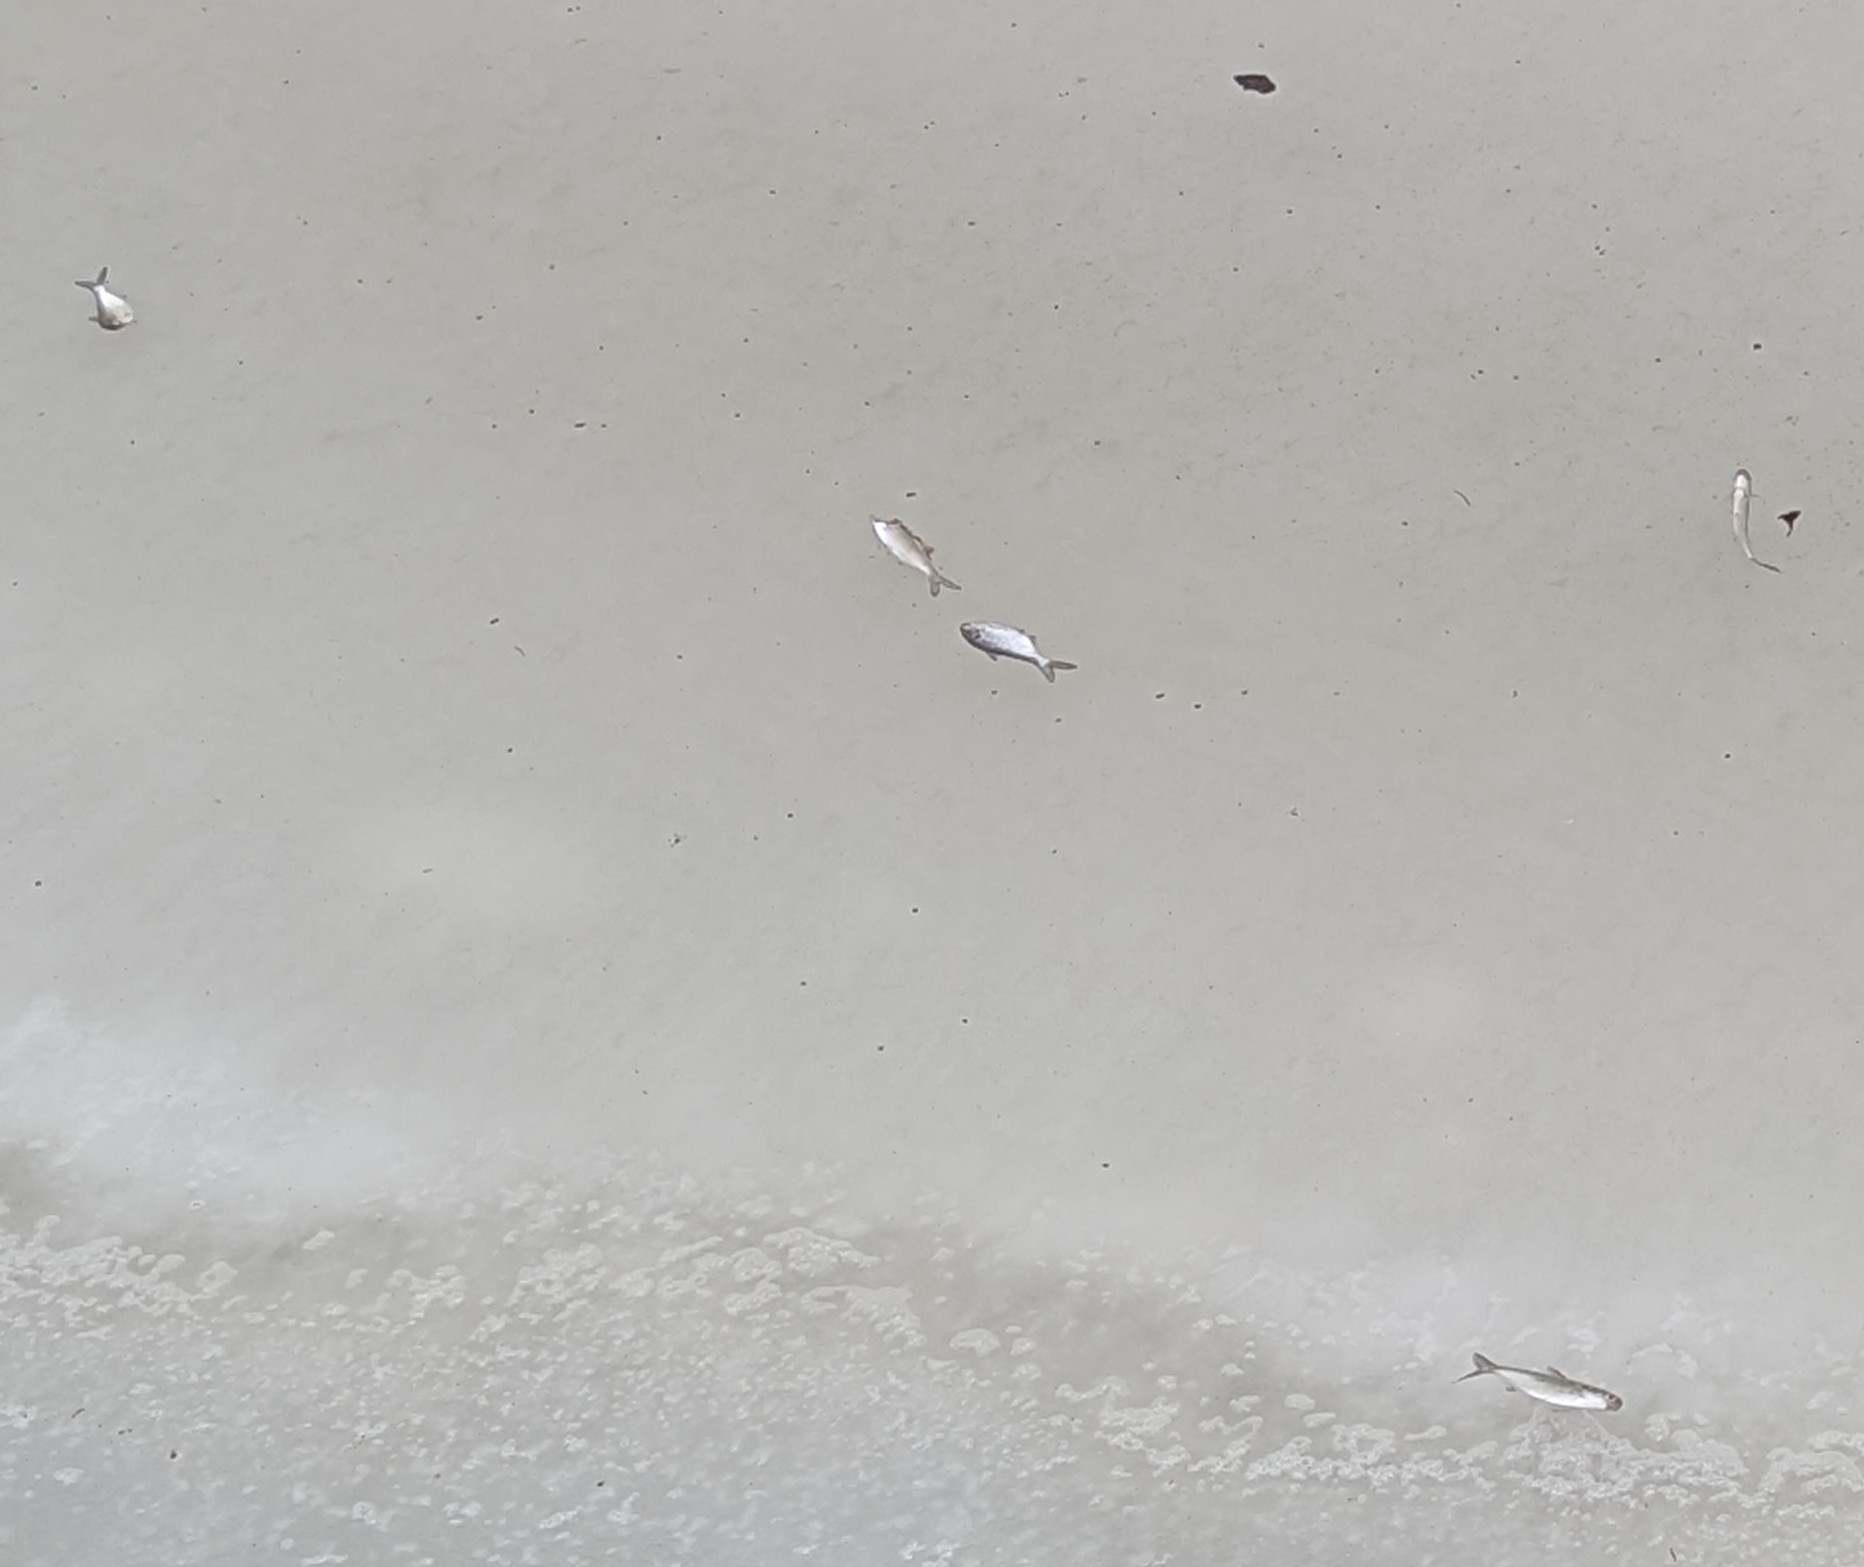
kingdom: Animalia
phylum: Chordata
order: Clupeiformes
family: Clupeidae
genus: Dorosoma
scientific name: Dorosoma cepedianum
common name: Gizzard shad
